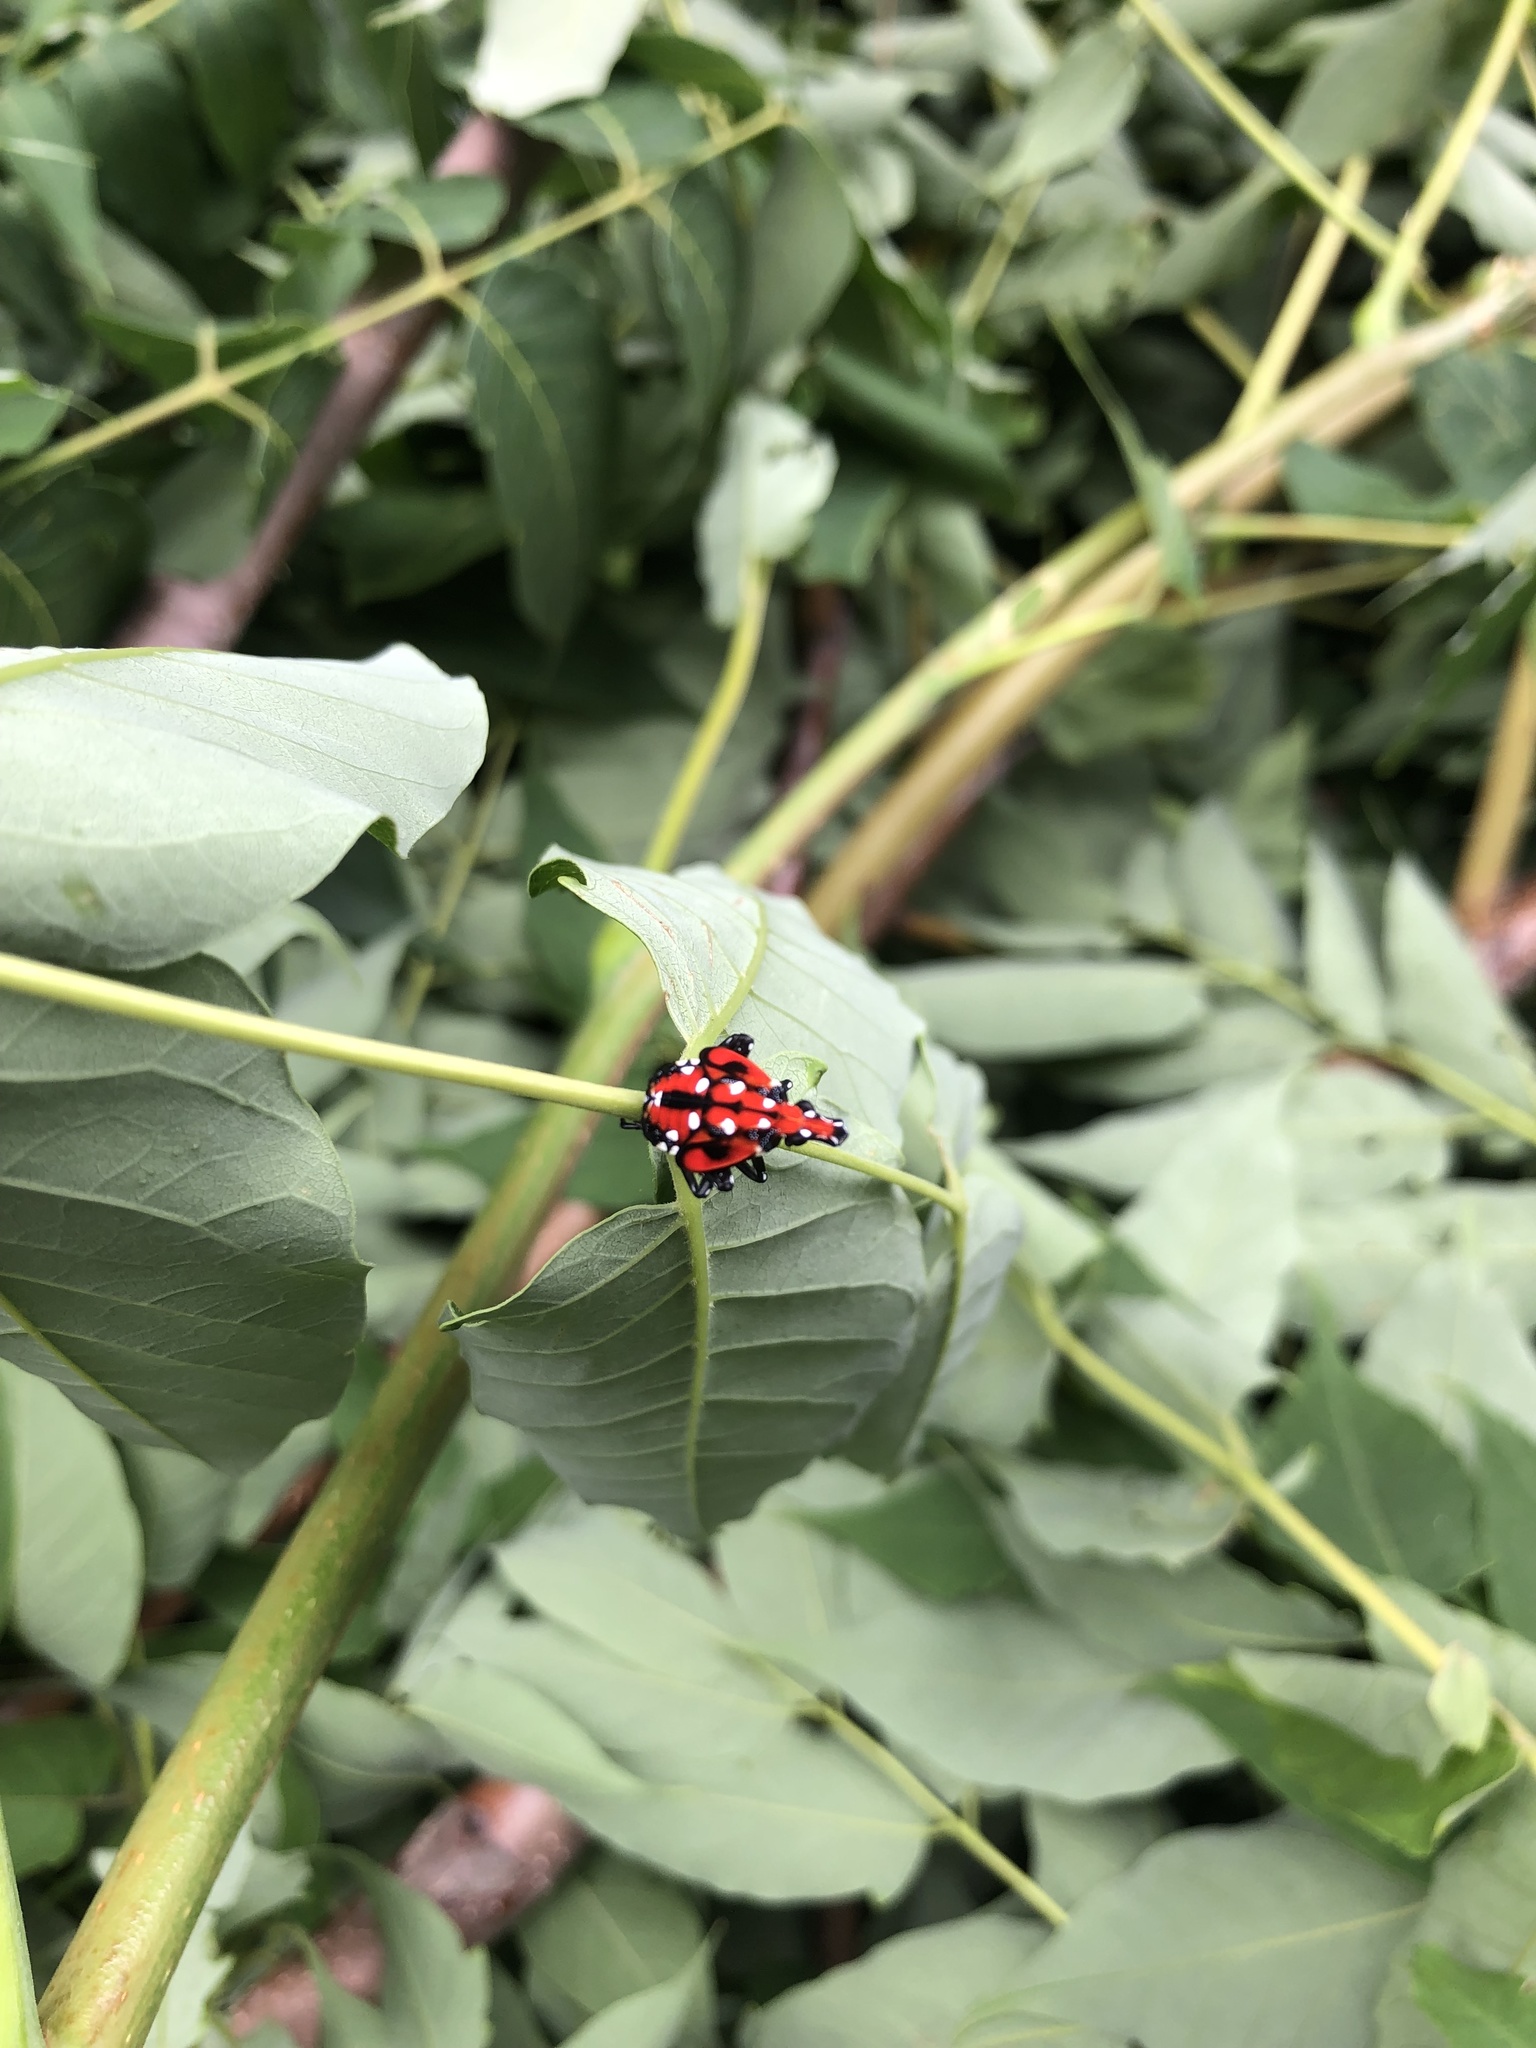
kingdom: Animalia
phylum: Arthropoda
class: Insecta
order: Hemiptera
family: Fulgoridae
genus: Lycorma
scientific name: Lycorma delicatula
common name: Spotted lanternfly
